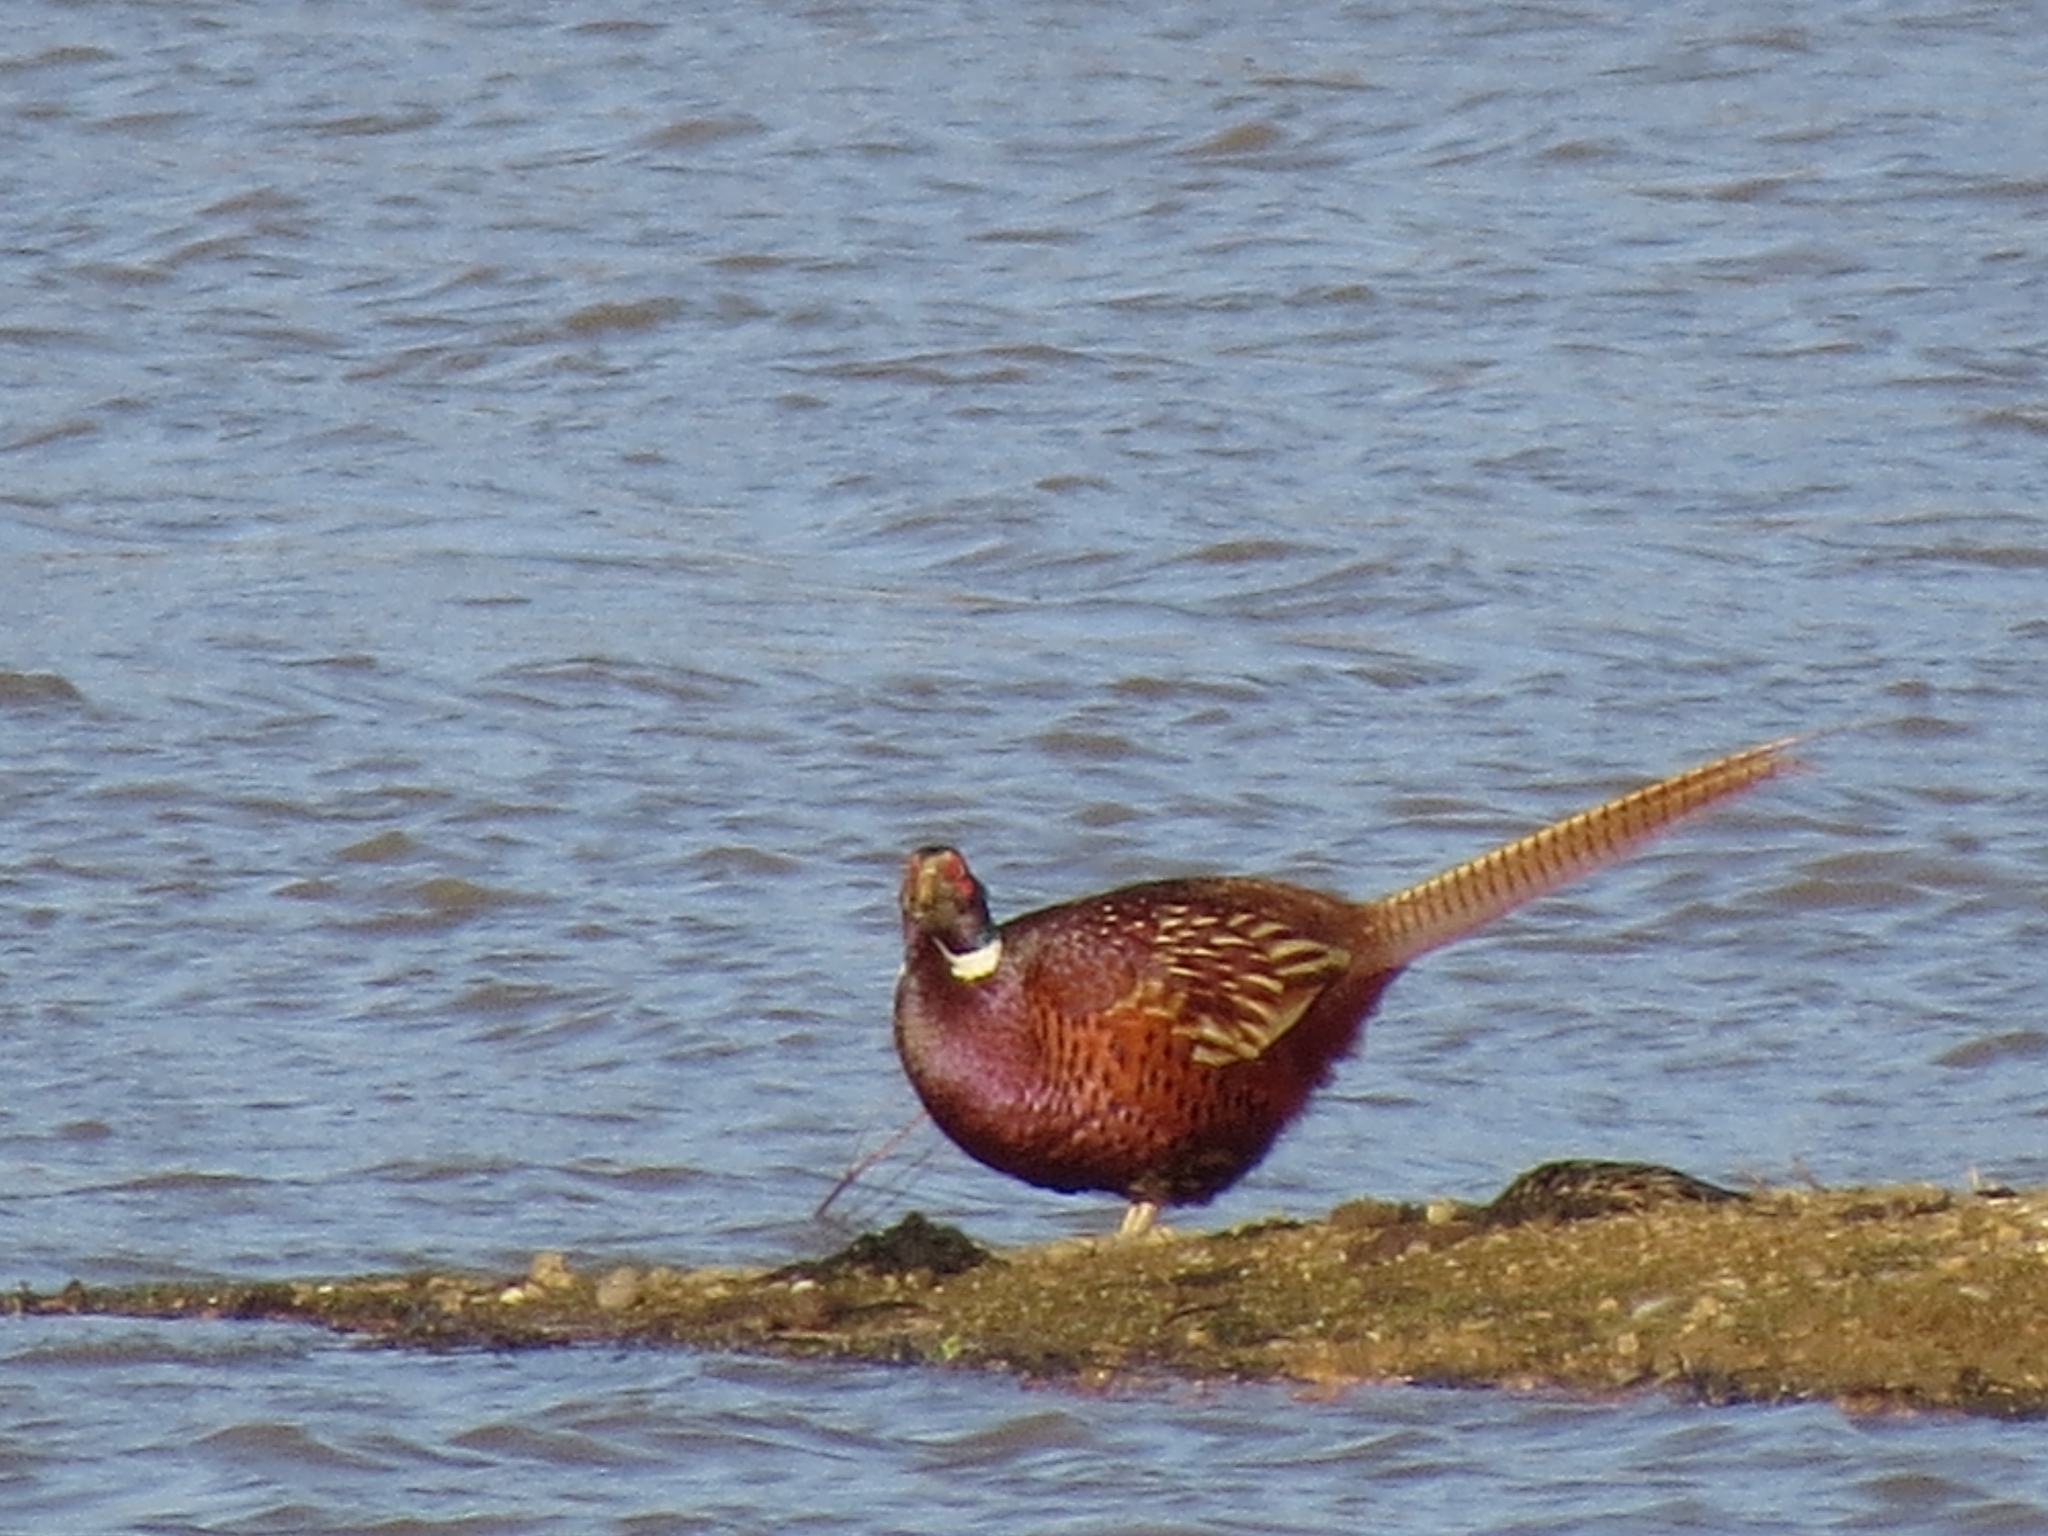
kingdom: Animalia
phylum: Chordata
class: Aves
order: Galliformes
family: Phasianidae
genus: Phasianus
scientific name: Phasianus colchicus
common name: Common pheasant
